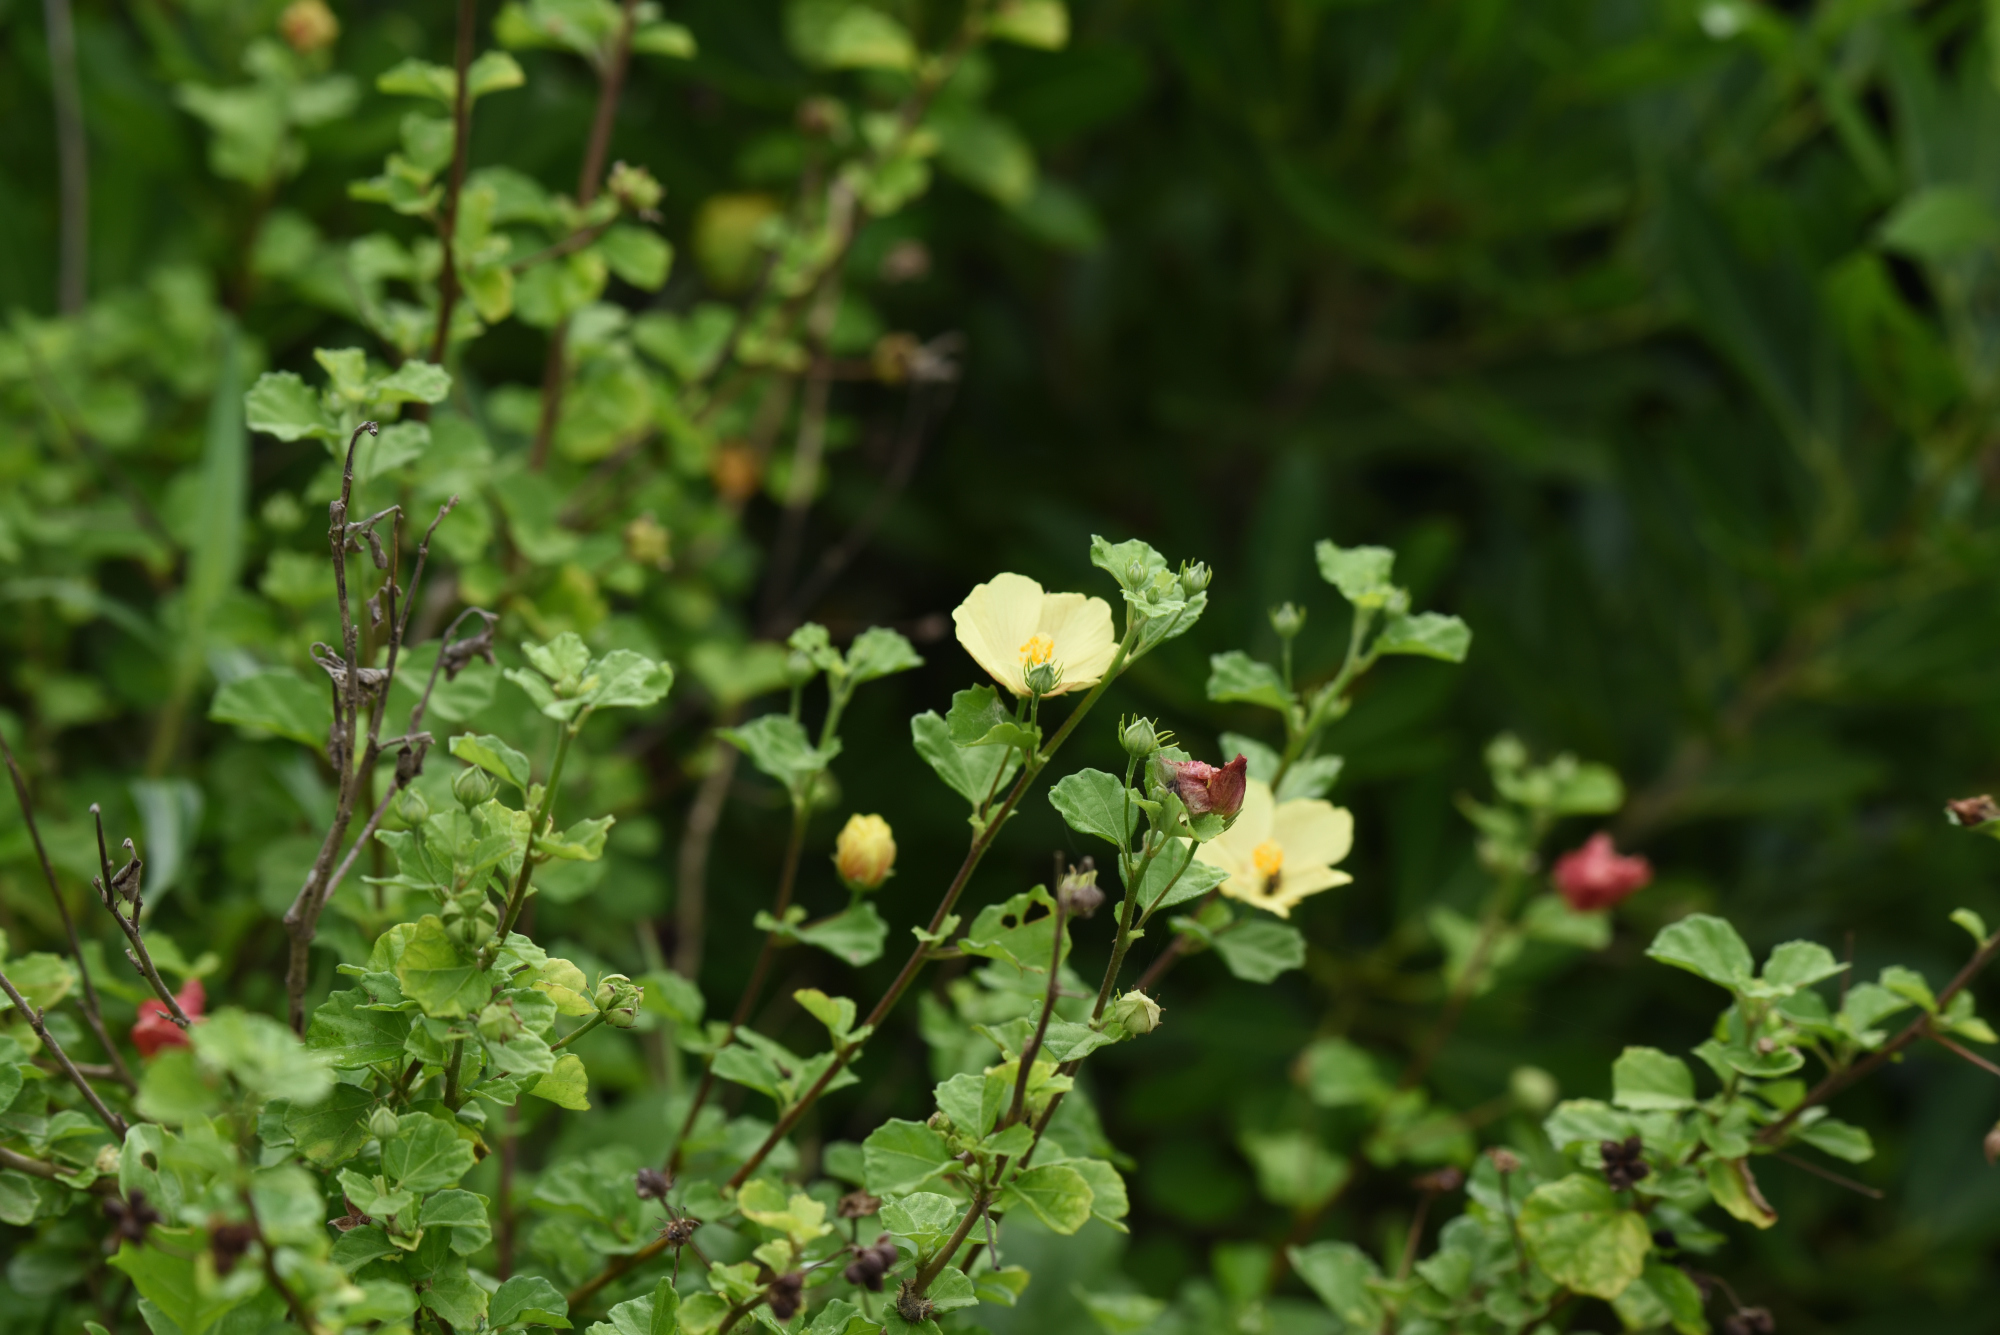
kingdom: Plantae
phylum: Tracheophyta
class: Magnoliopsida
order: Malvales
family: Malvaceae
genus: Pavonia
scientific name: Pavonia praemorsa
